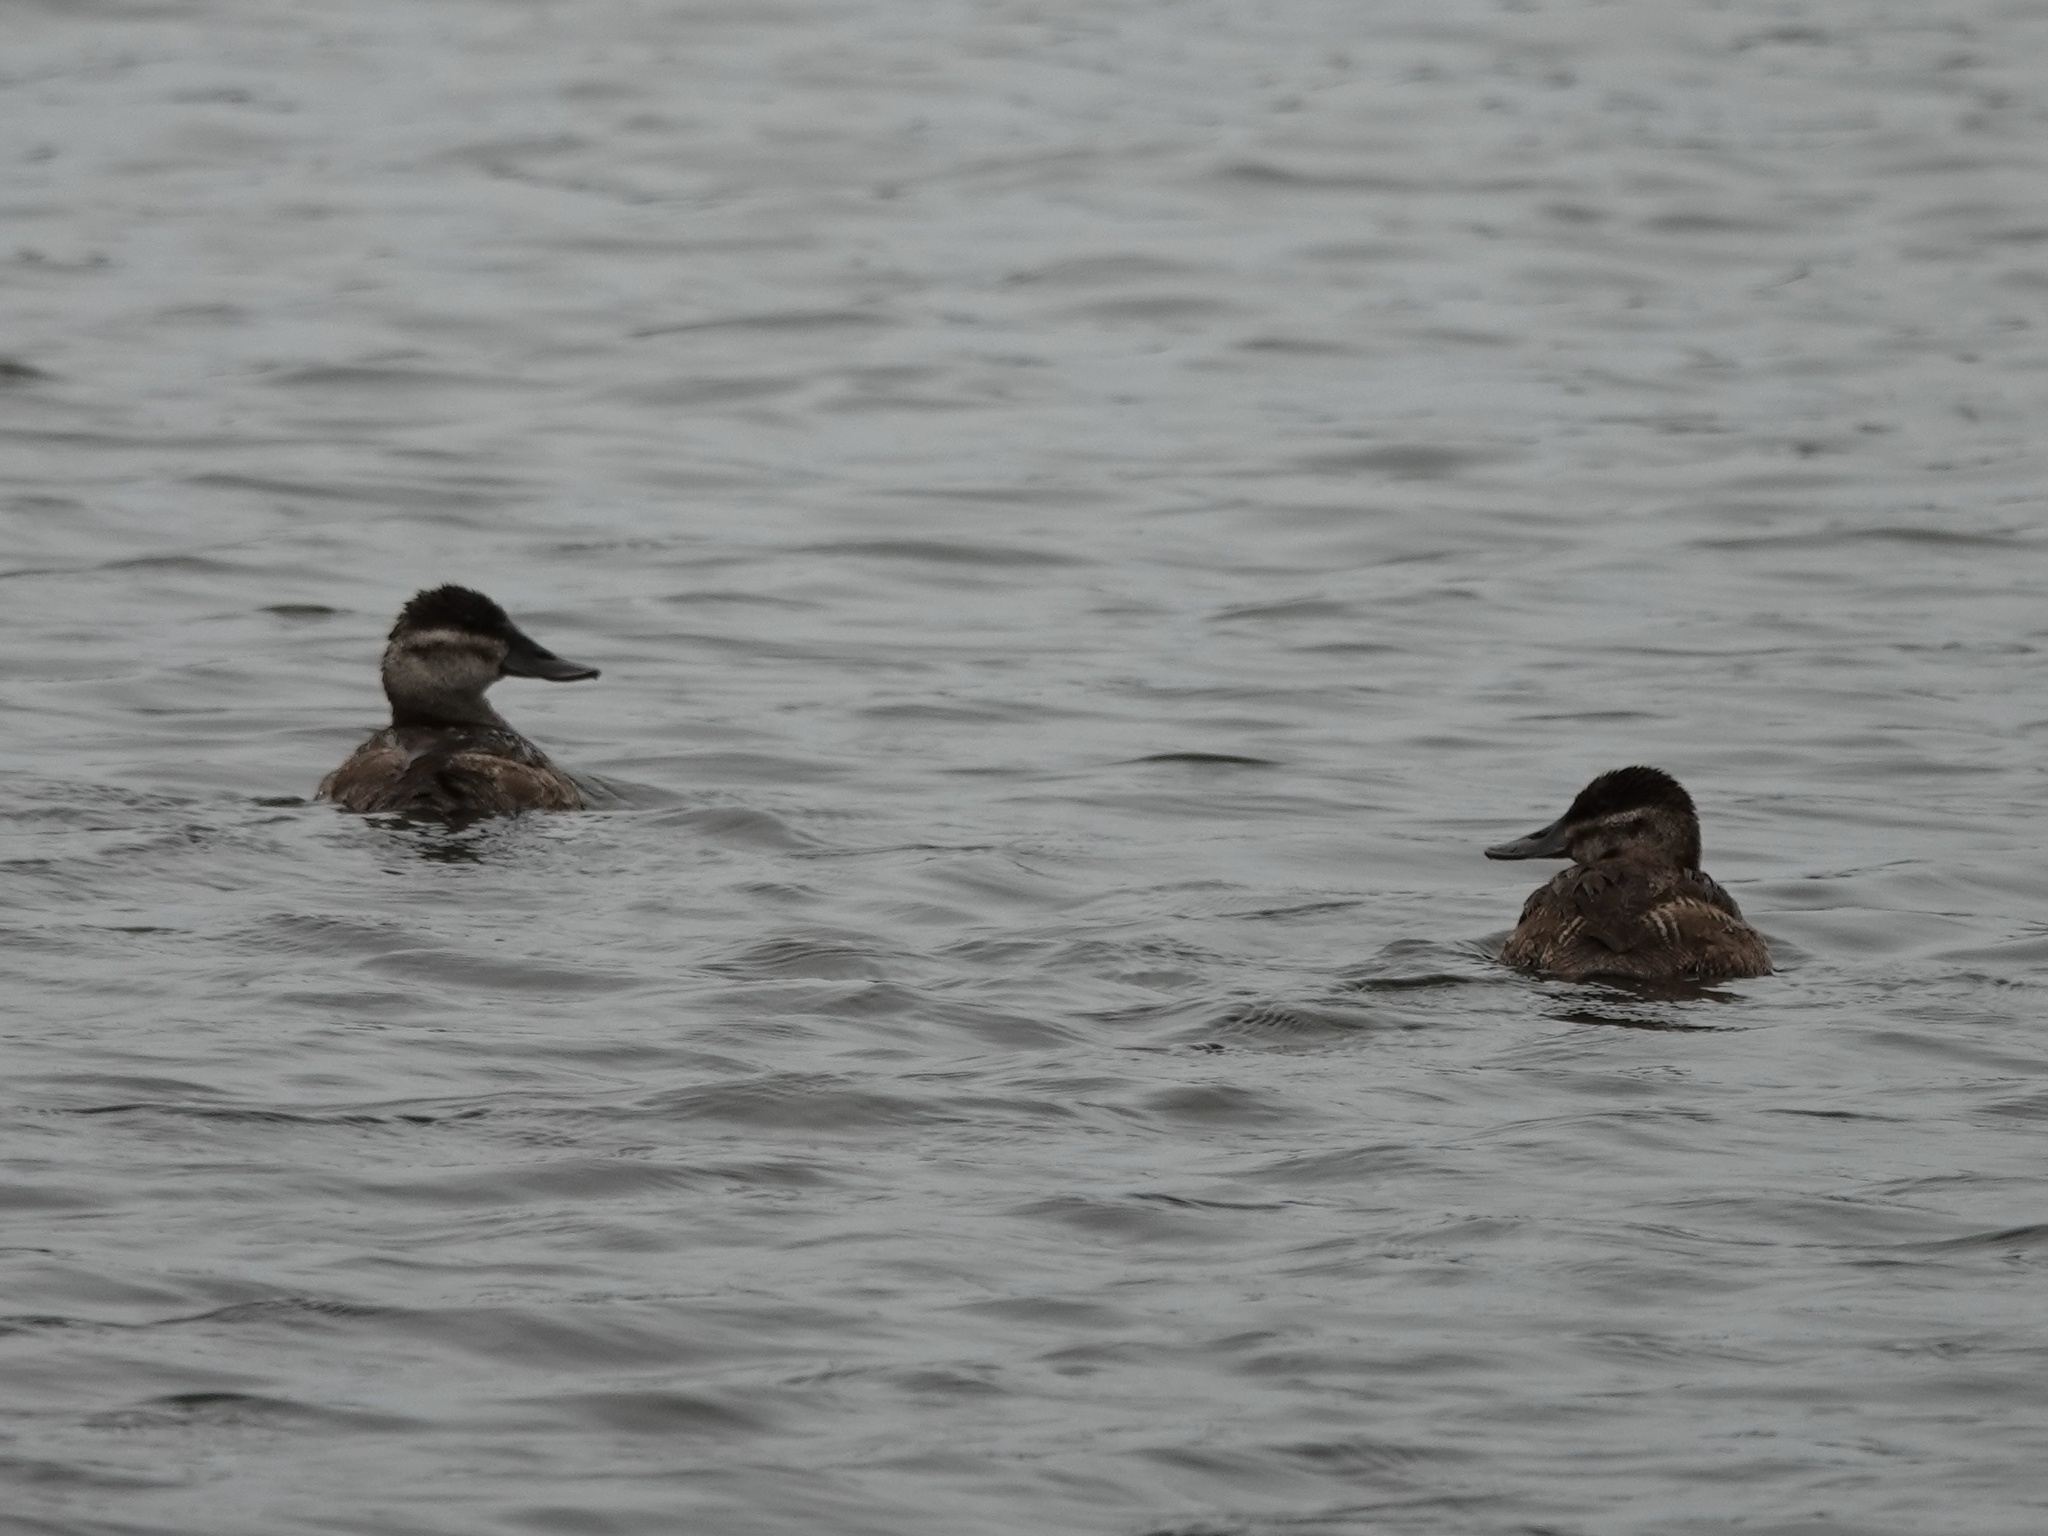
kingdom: Animalia
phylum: Chordata
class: Aves
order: Anseriformes
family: Anatidae
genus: Oxyura
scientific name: Oxyura jamaicensis
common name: Ruddy duck
